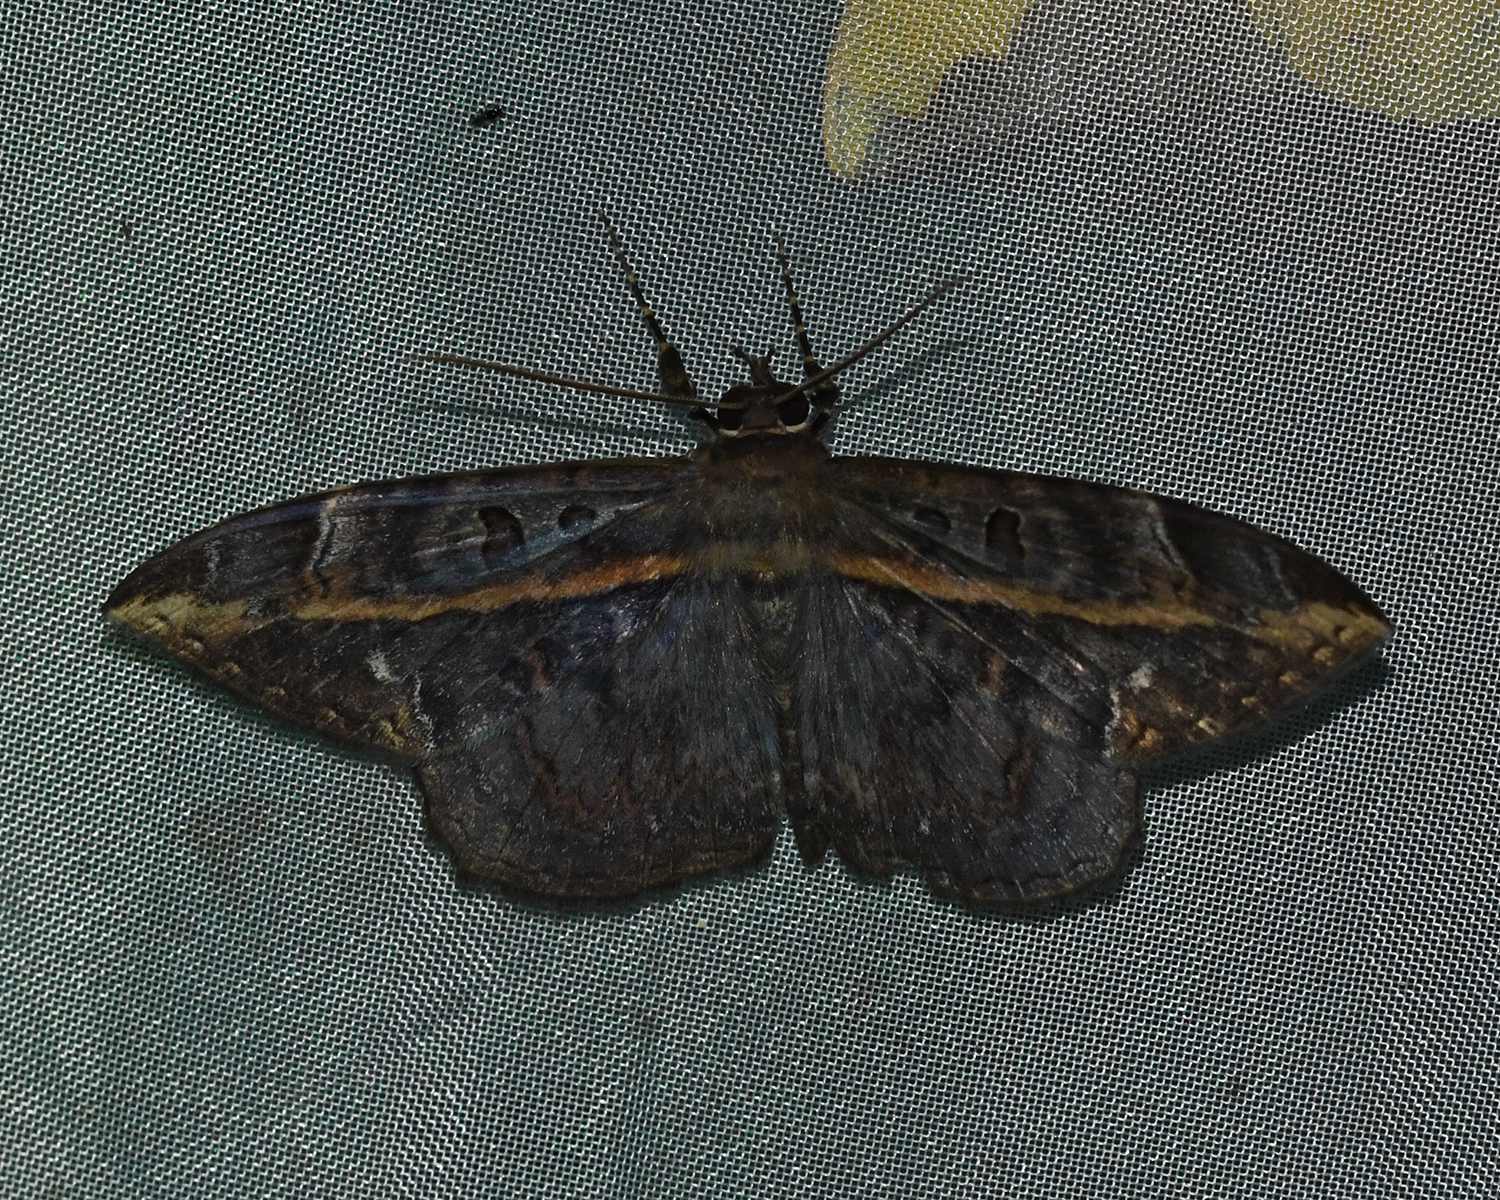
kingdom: Animalia
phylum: Arthropoda
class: Insecta
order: Lepidoptera
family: Erebidae
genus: Hemeroblemma
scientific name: Hemeroblemma ochrolinea
